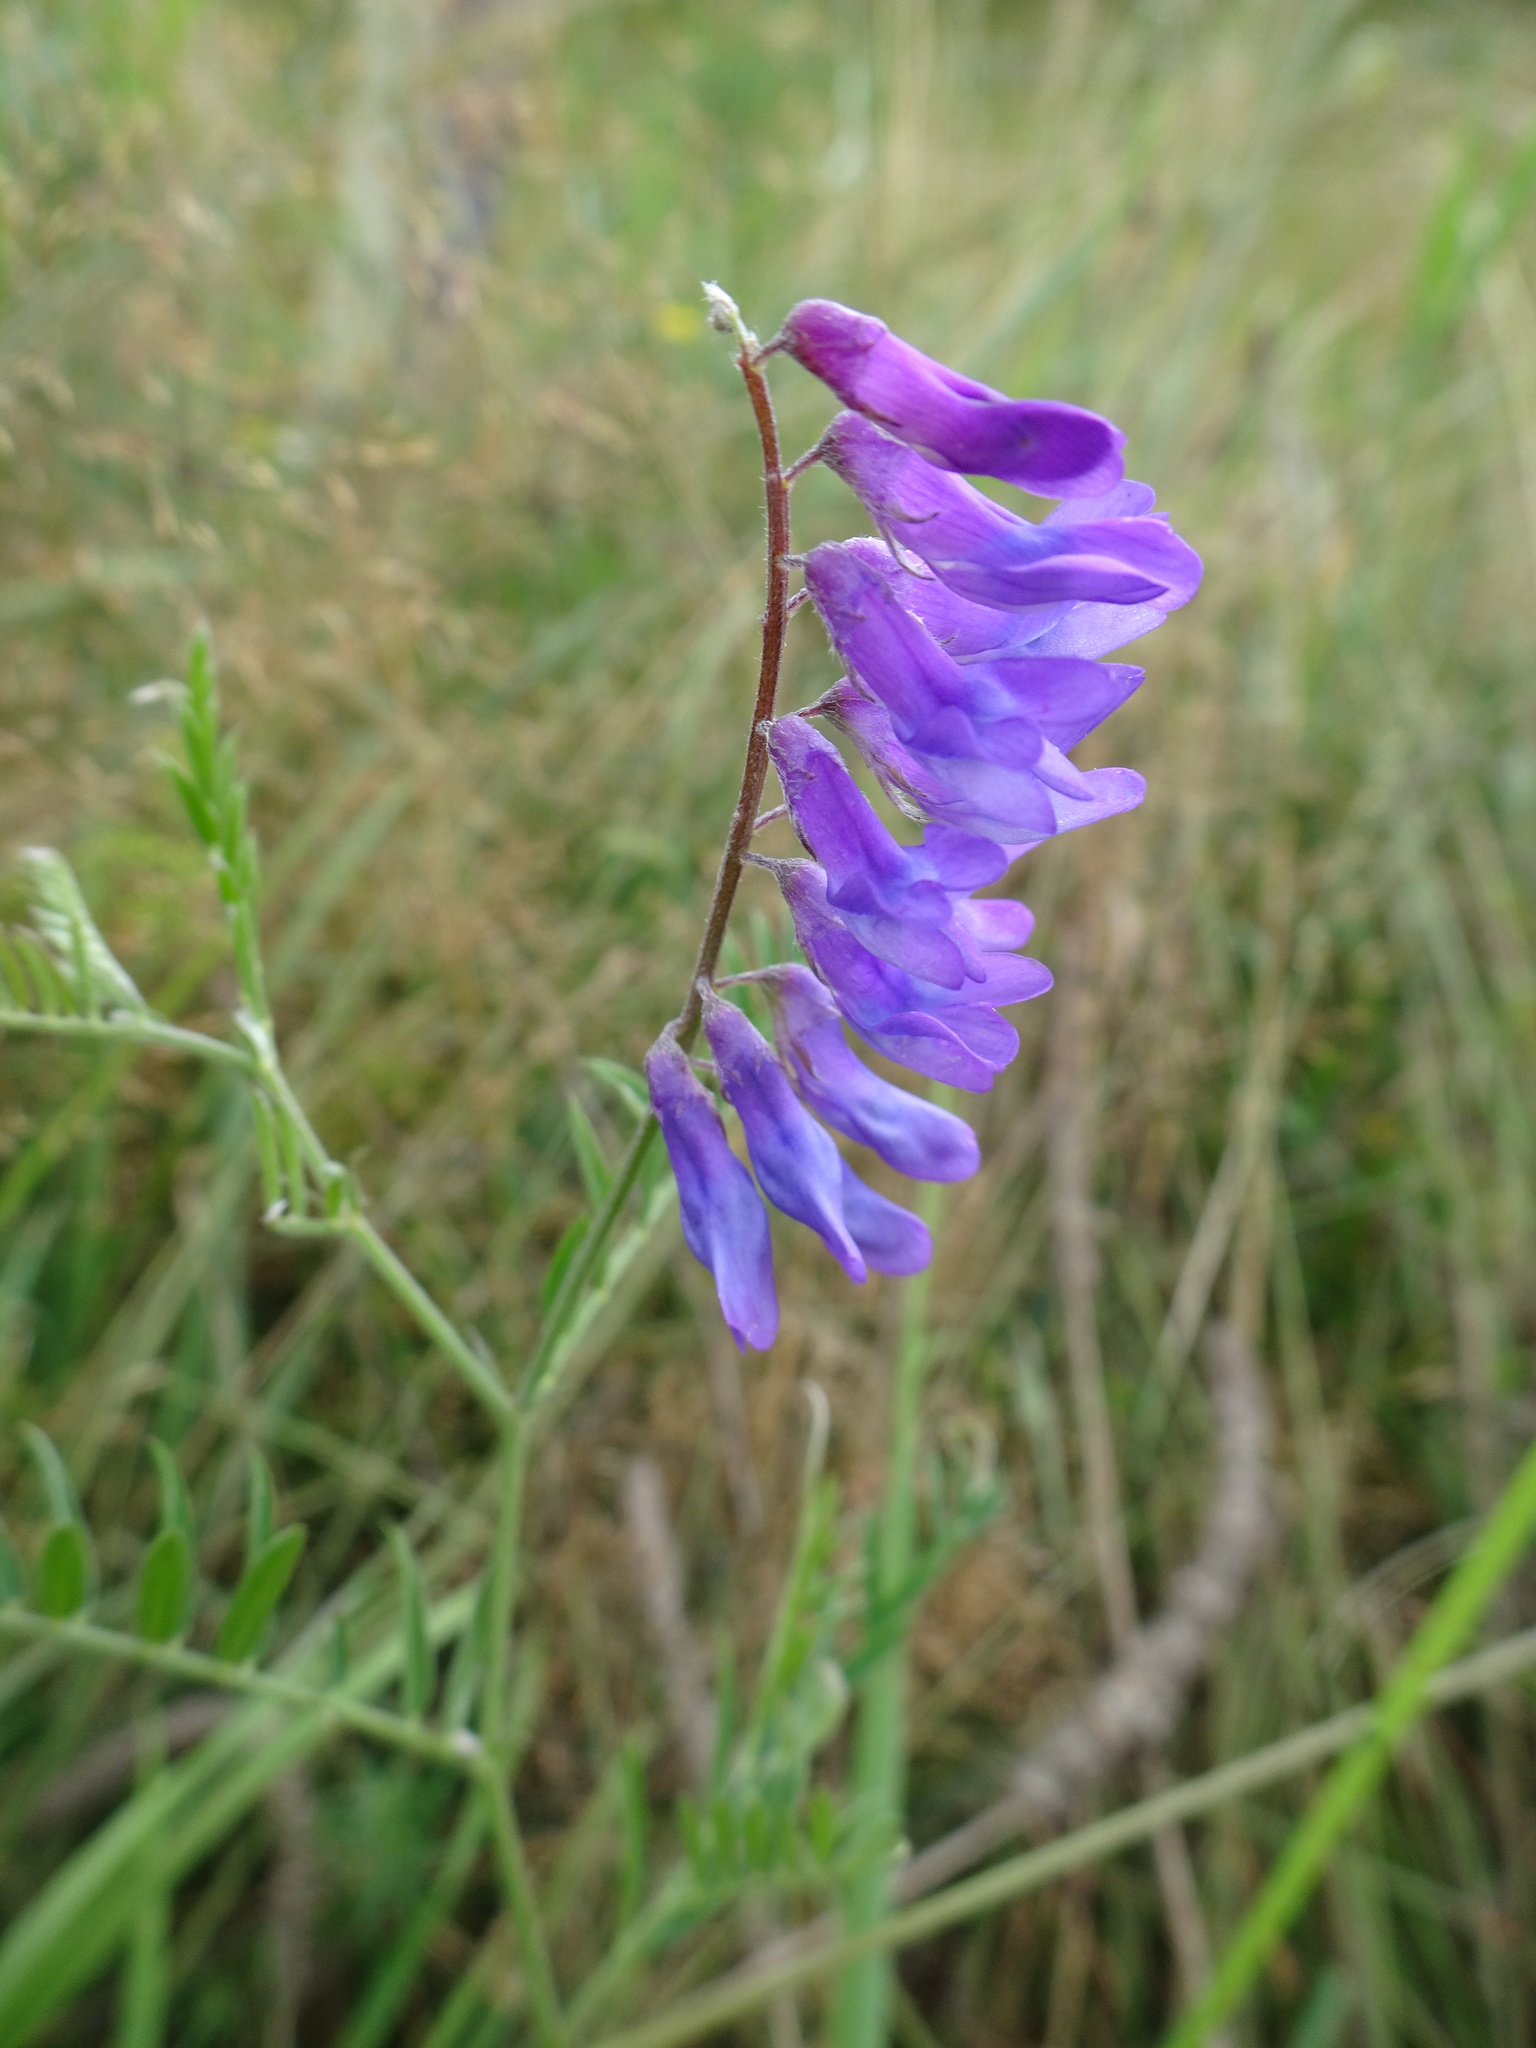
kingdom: Plantae
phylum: Tracheophyta
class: Magnoliopsida
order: Fabales
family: Fabaceae
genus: Vicia
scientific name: Vicia cracca
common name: Bird vetch
